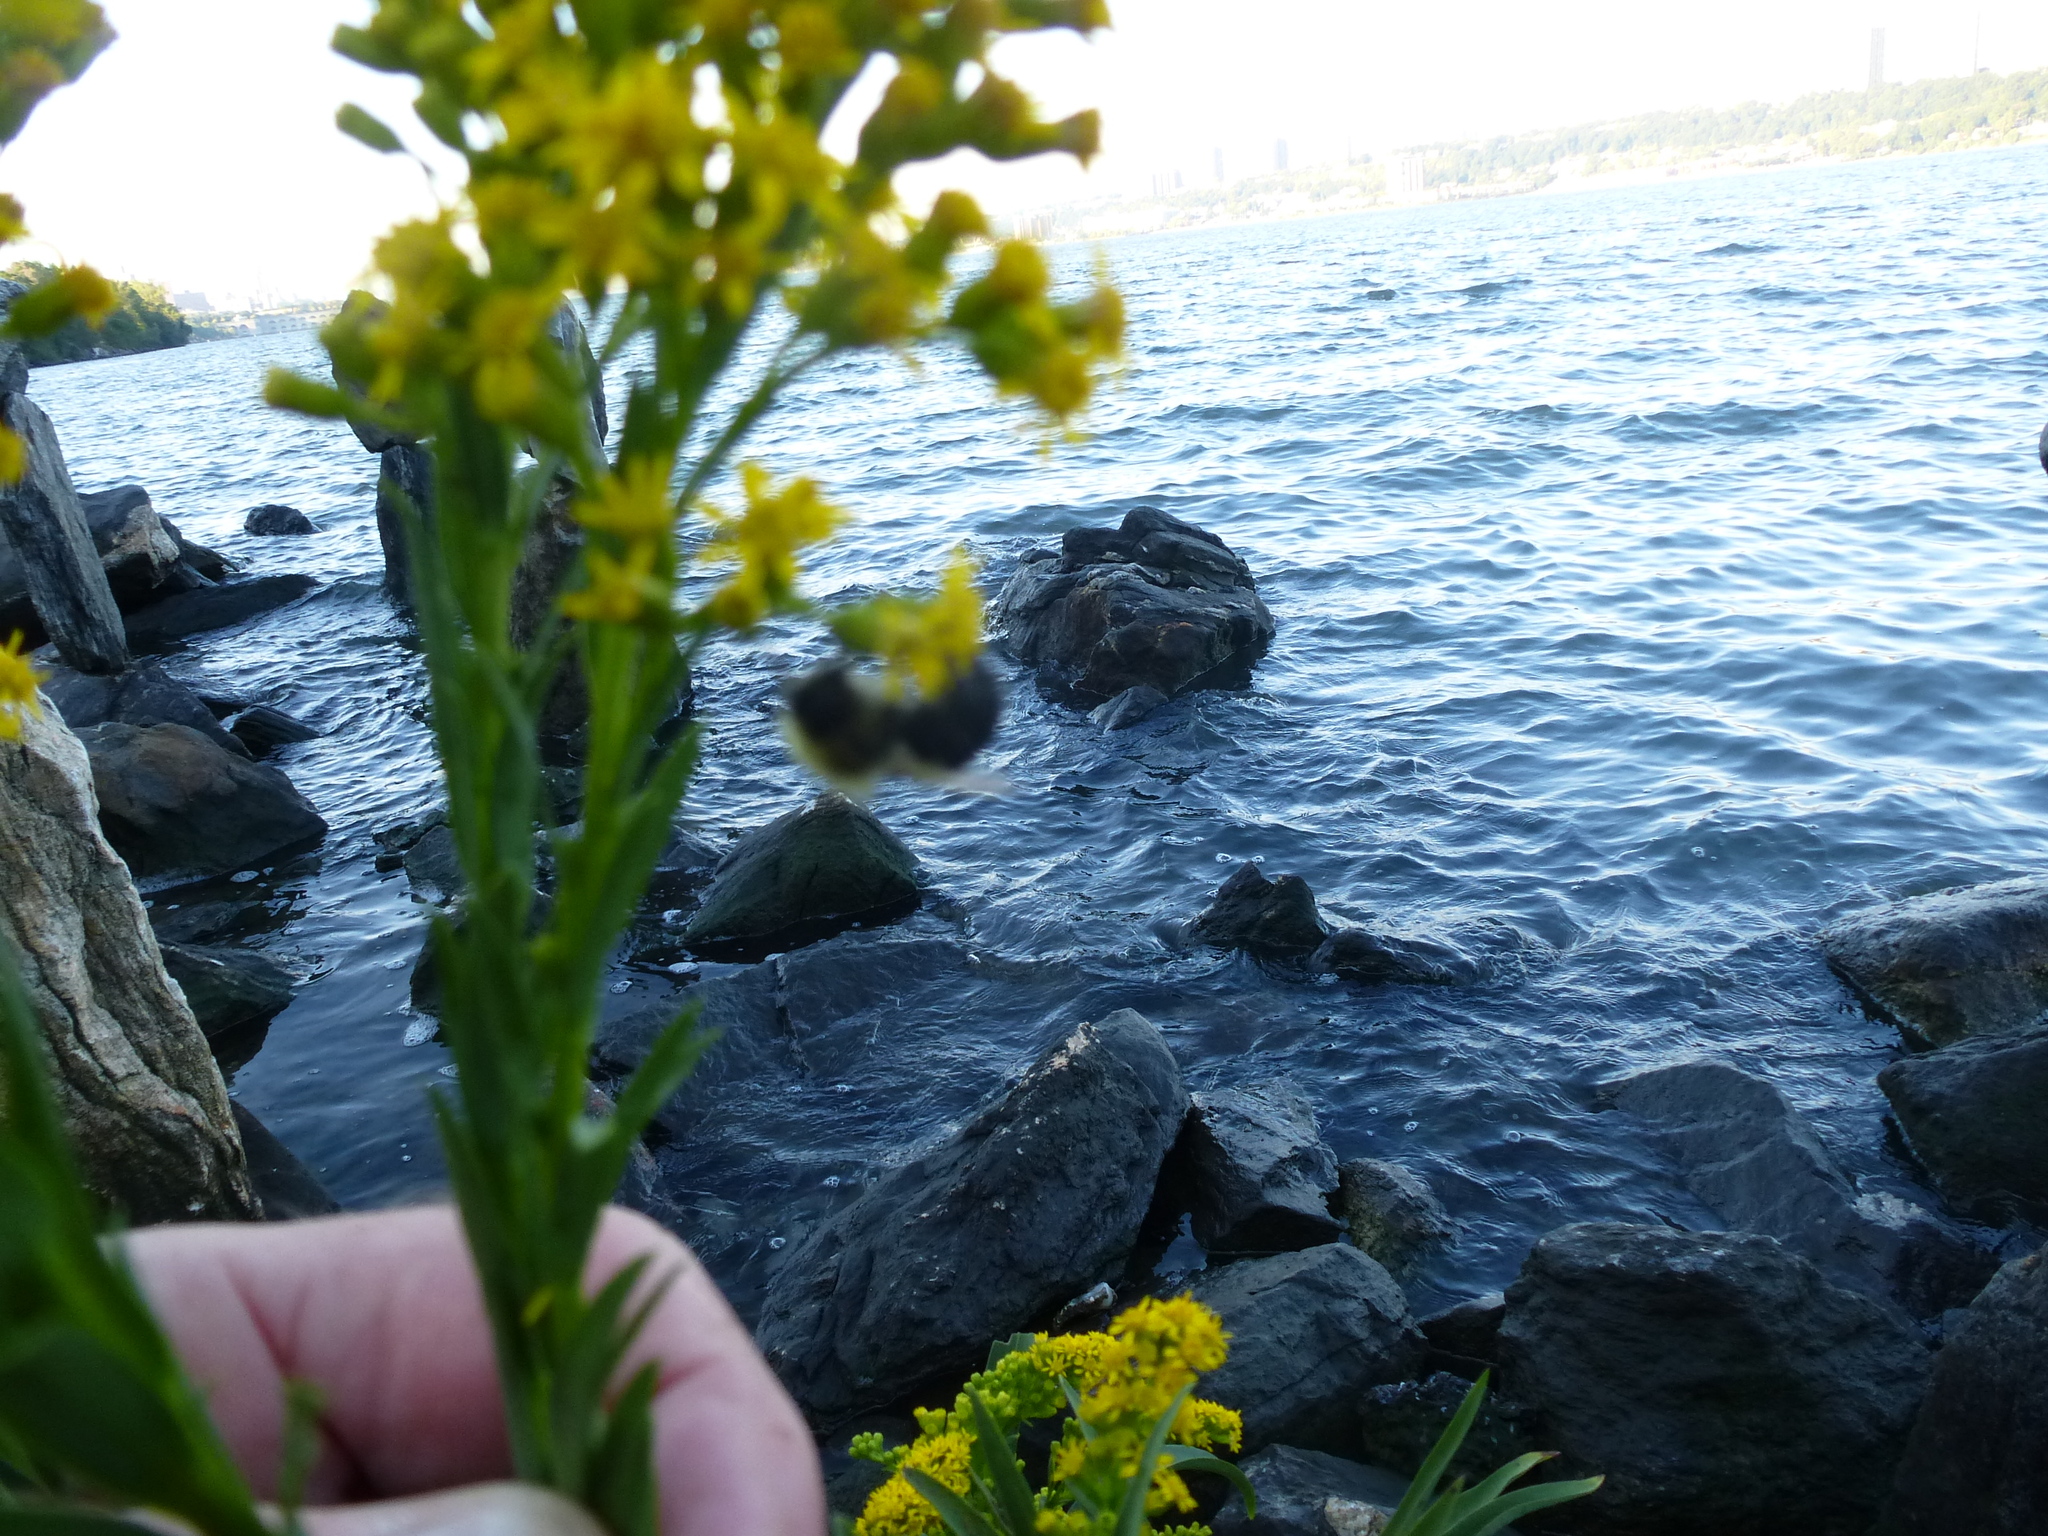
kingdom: Plantae
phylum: Tracheophyta
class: Magnoliopsida
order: Asterales
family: Asteraceae
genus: Solidago
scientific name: Solidago sempervirens
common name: Salt-marsh goldenrod
